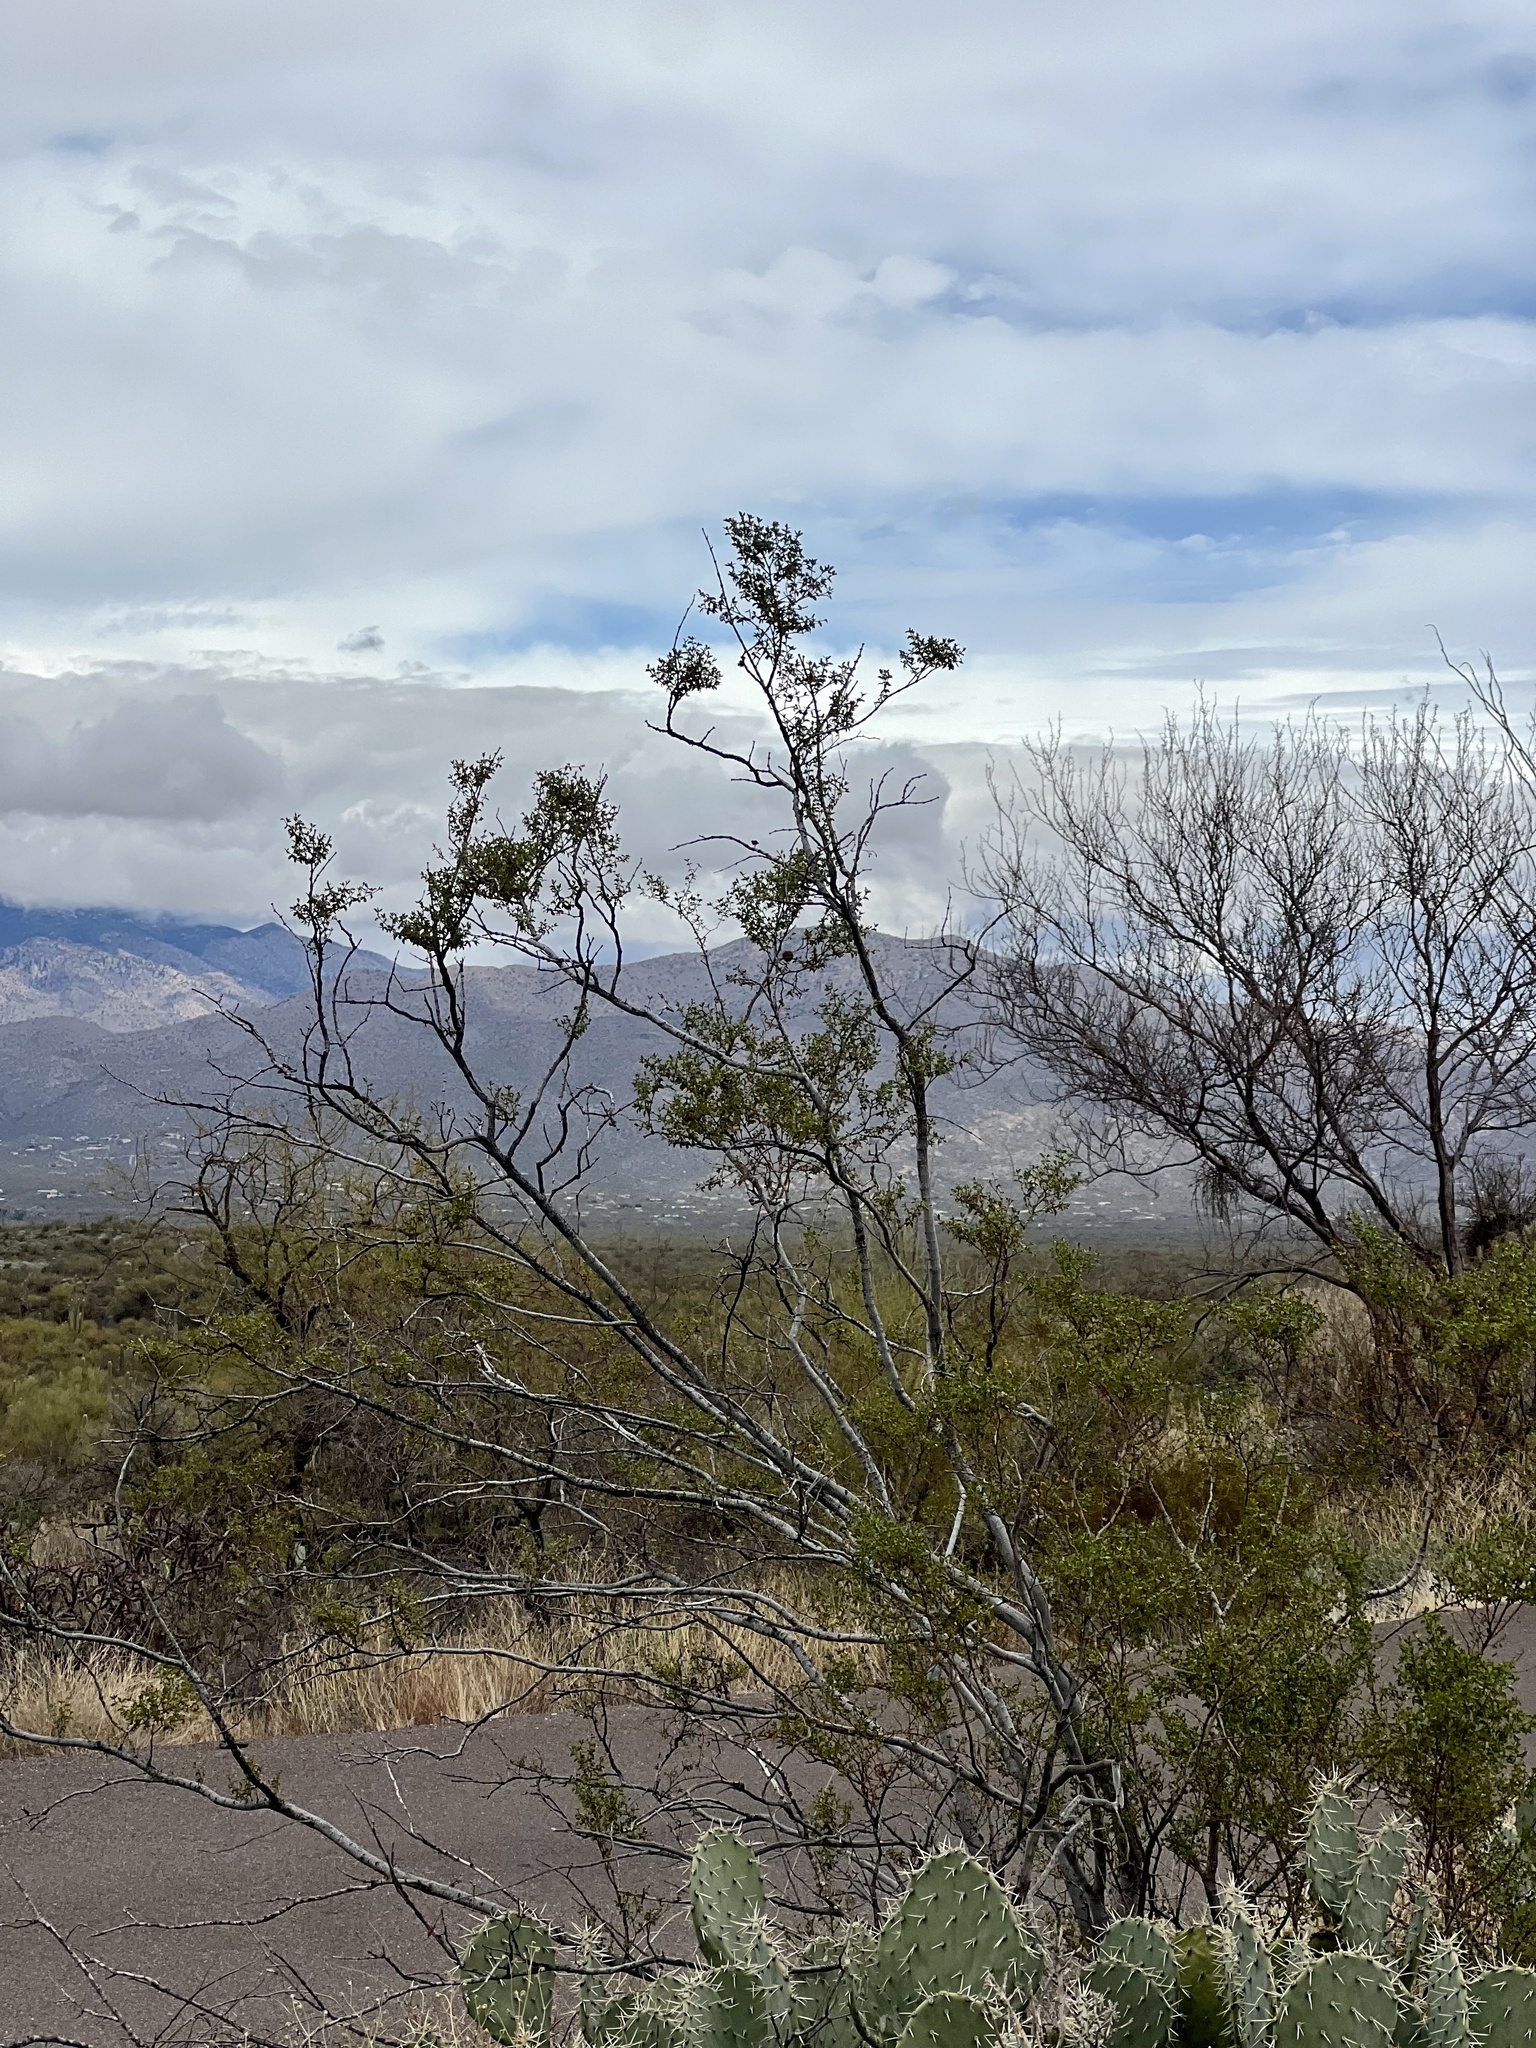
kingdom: Plantae
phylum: Tracheophyta
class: Magnoliopsida
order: Zygophyllales
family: Zygophyllaceae
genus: Larrea
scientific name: Larrea tridentata
